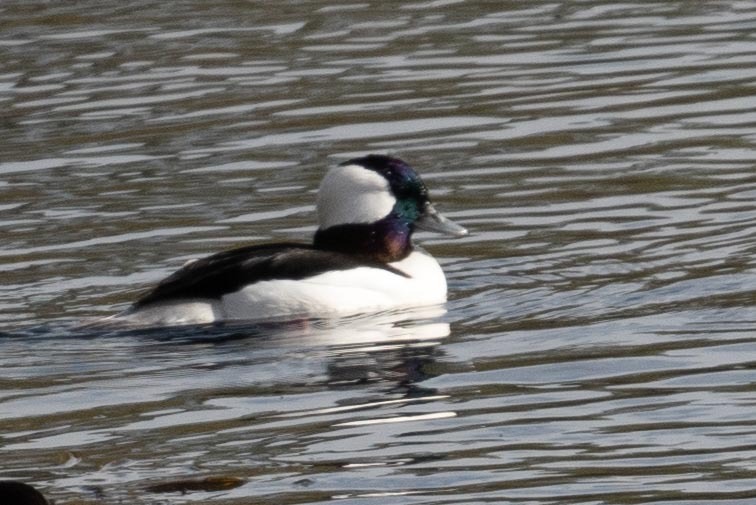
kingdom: Animalia
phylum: Chordata
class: Aves
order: Anseriformes
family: Anatidae
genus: Bucephala
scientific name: Bucephala albeola
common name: Bufflehead
